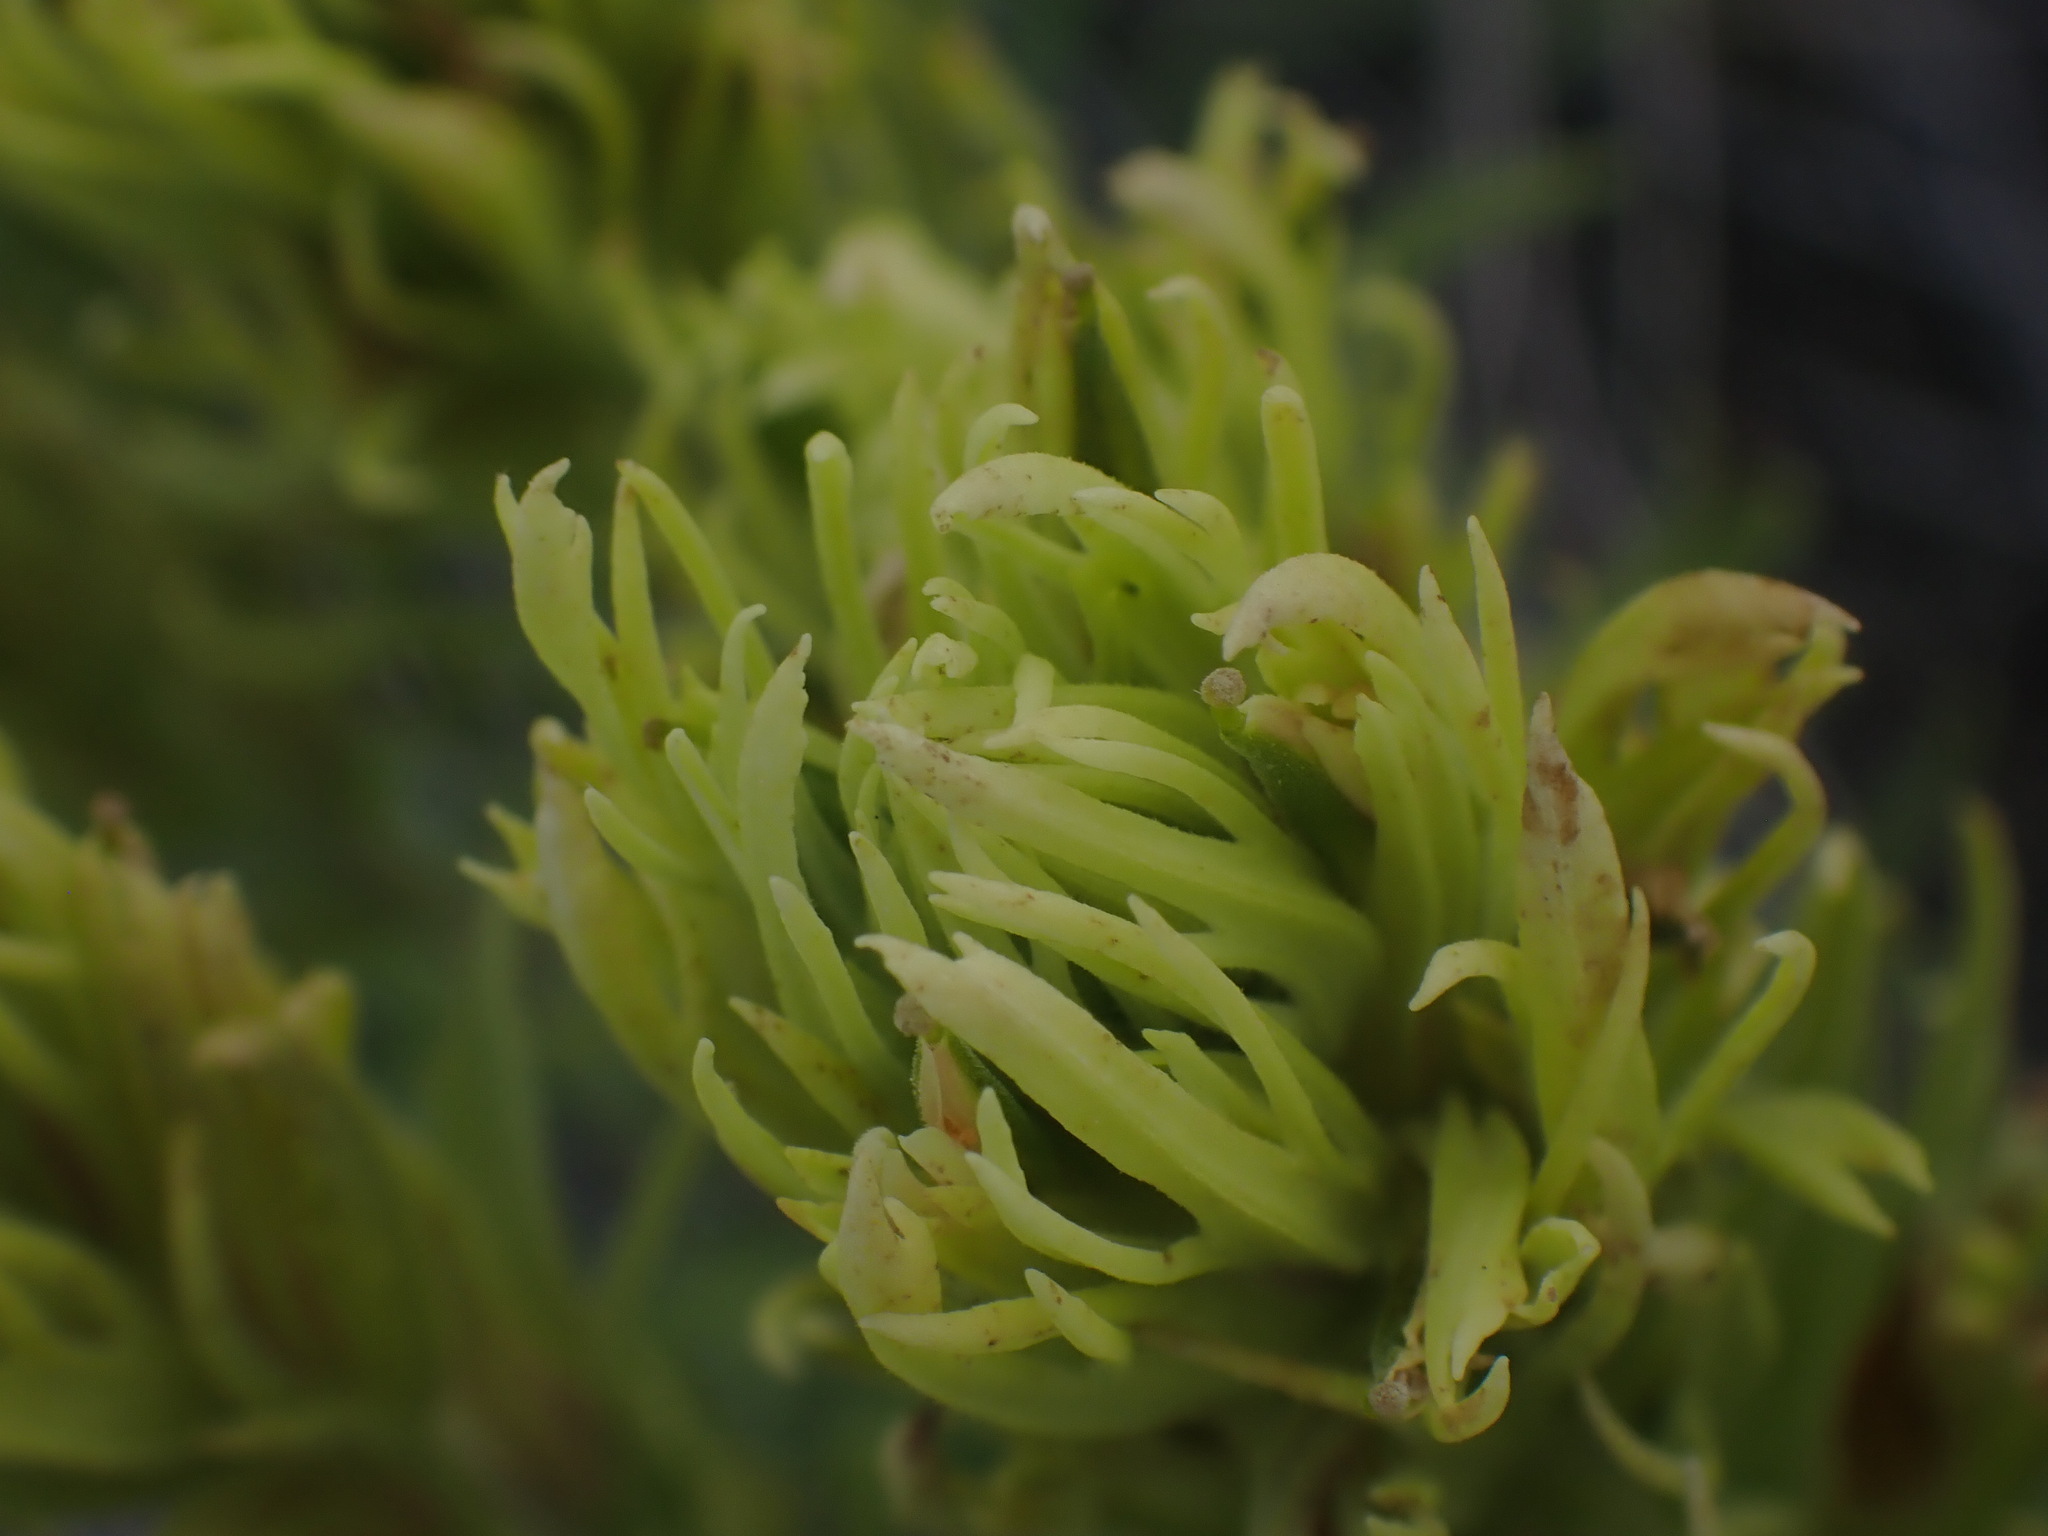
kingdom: Plantae
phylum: Tracheophyta
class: Magnoliopsida
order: Lamiales
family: Orobanchaceae
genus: Castilleja
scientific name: Castilleja thompsonii
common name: Thompson's paintbrush
